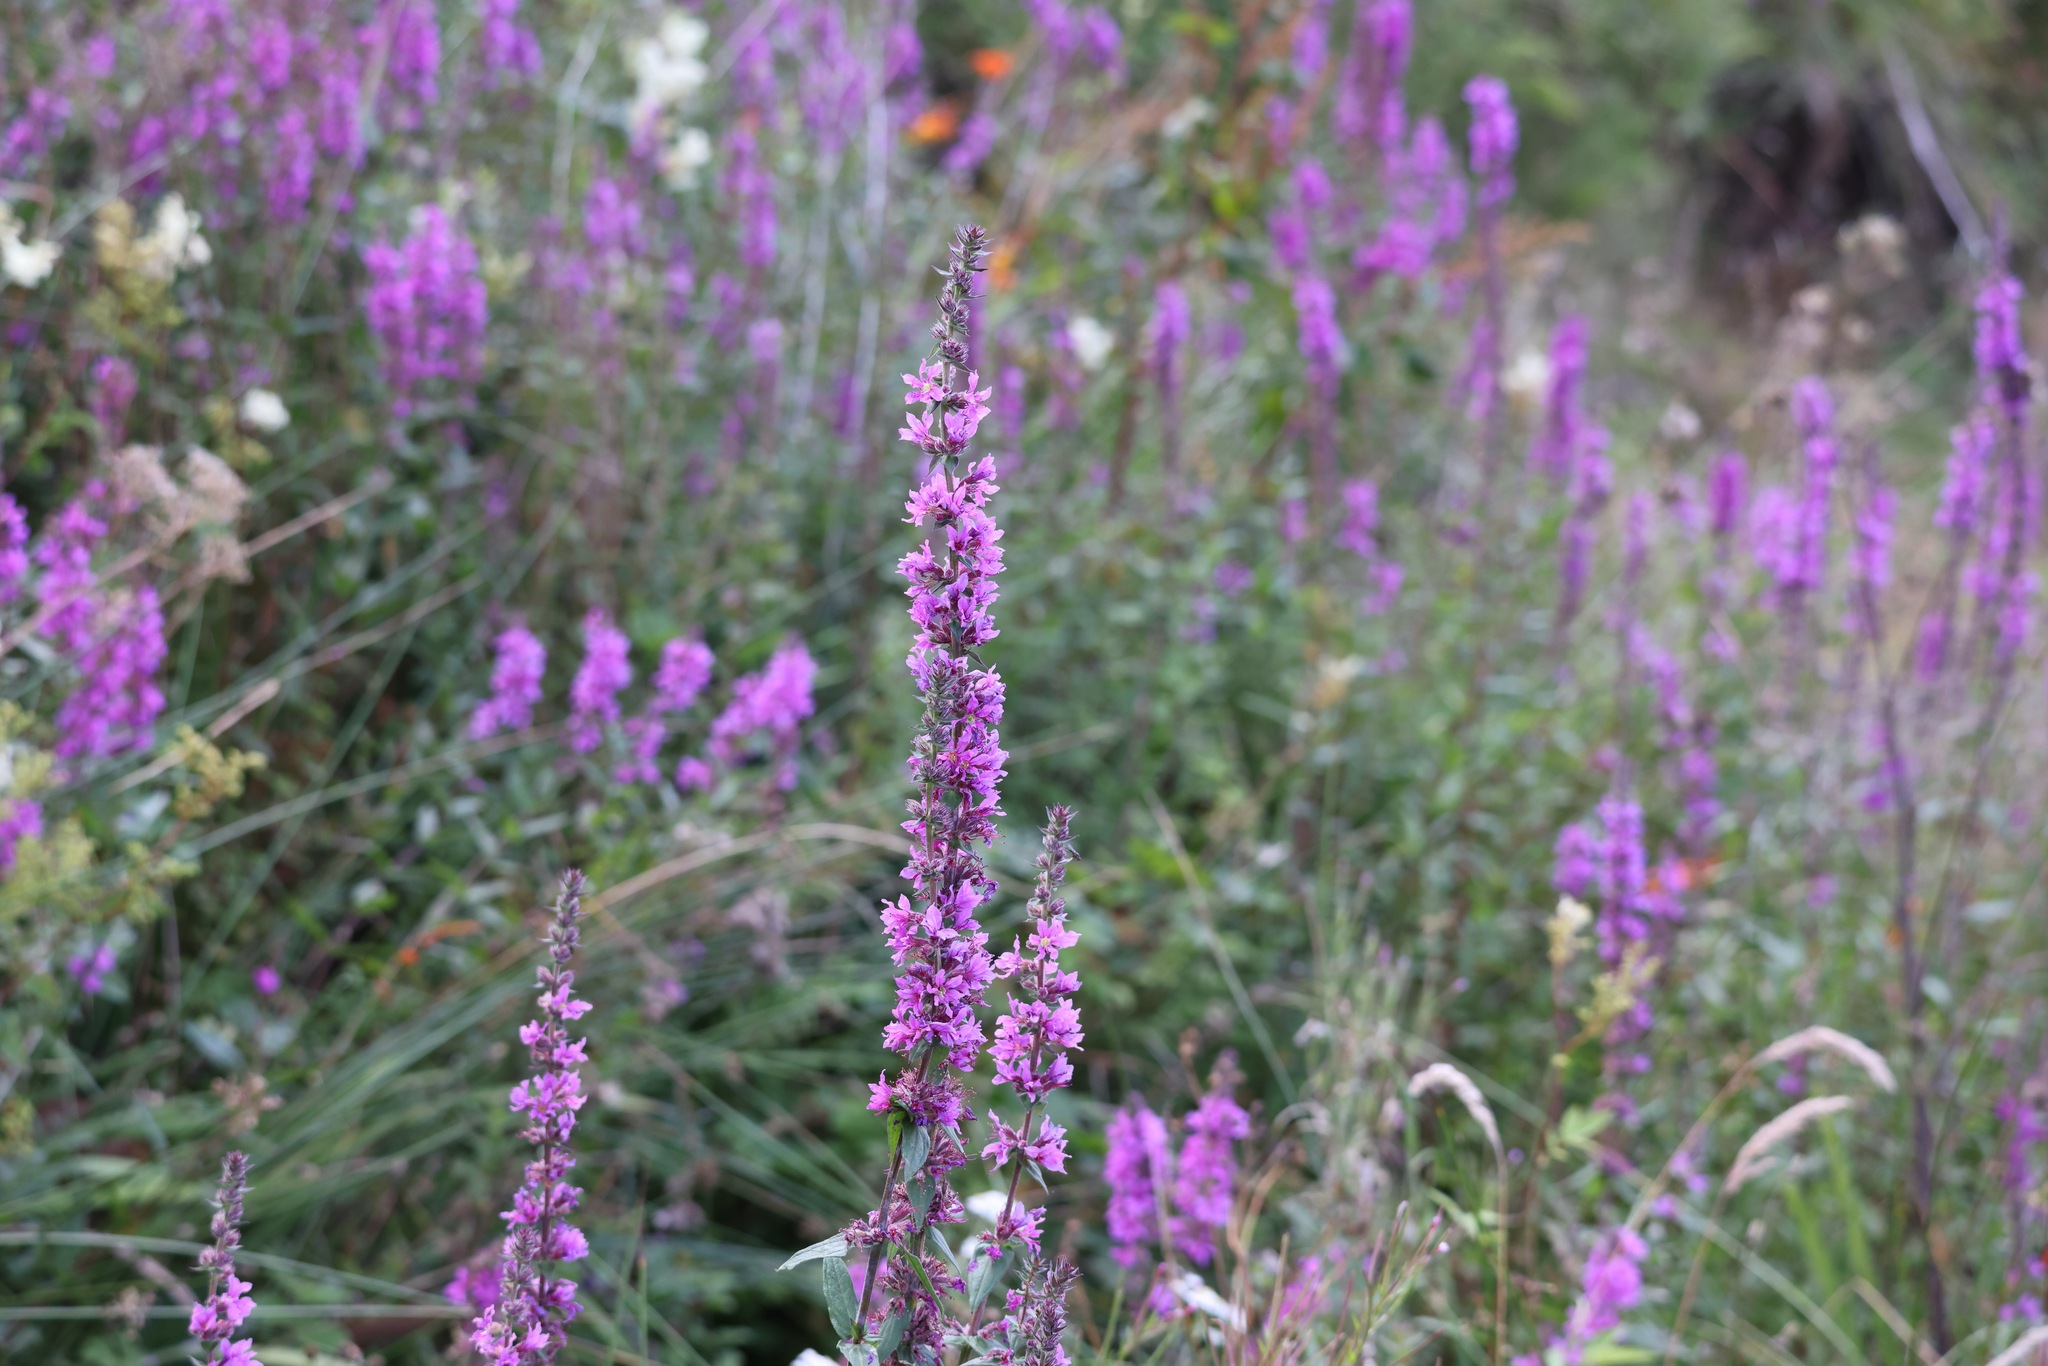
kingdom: Plantae
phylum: Tracheophyta
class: Magnoliopsida
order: Myrtales
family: Lythraceae
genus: Lythrum
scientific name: Lythrum salicaria
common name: Purple loosestrife
